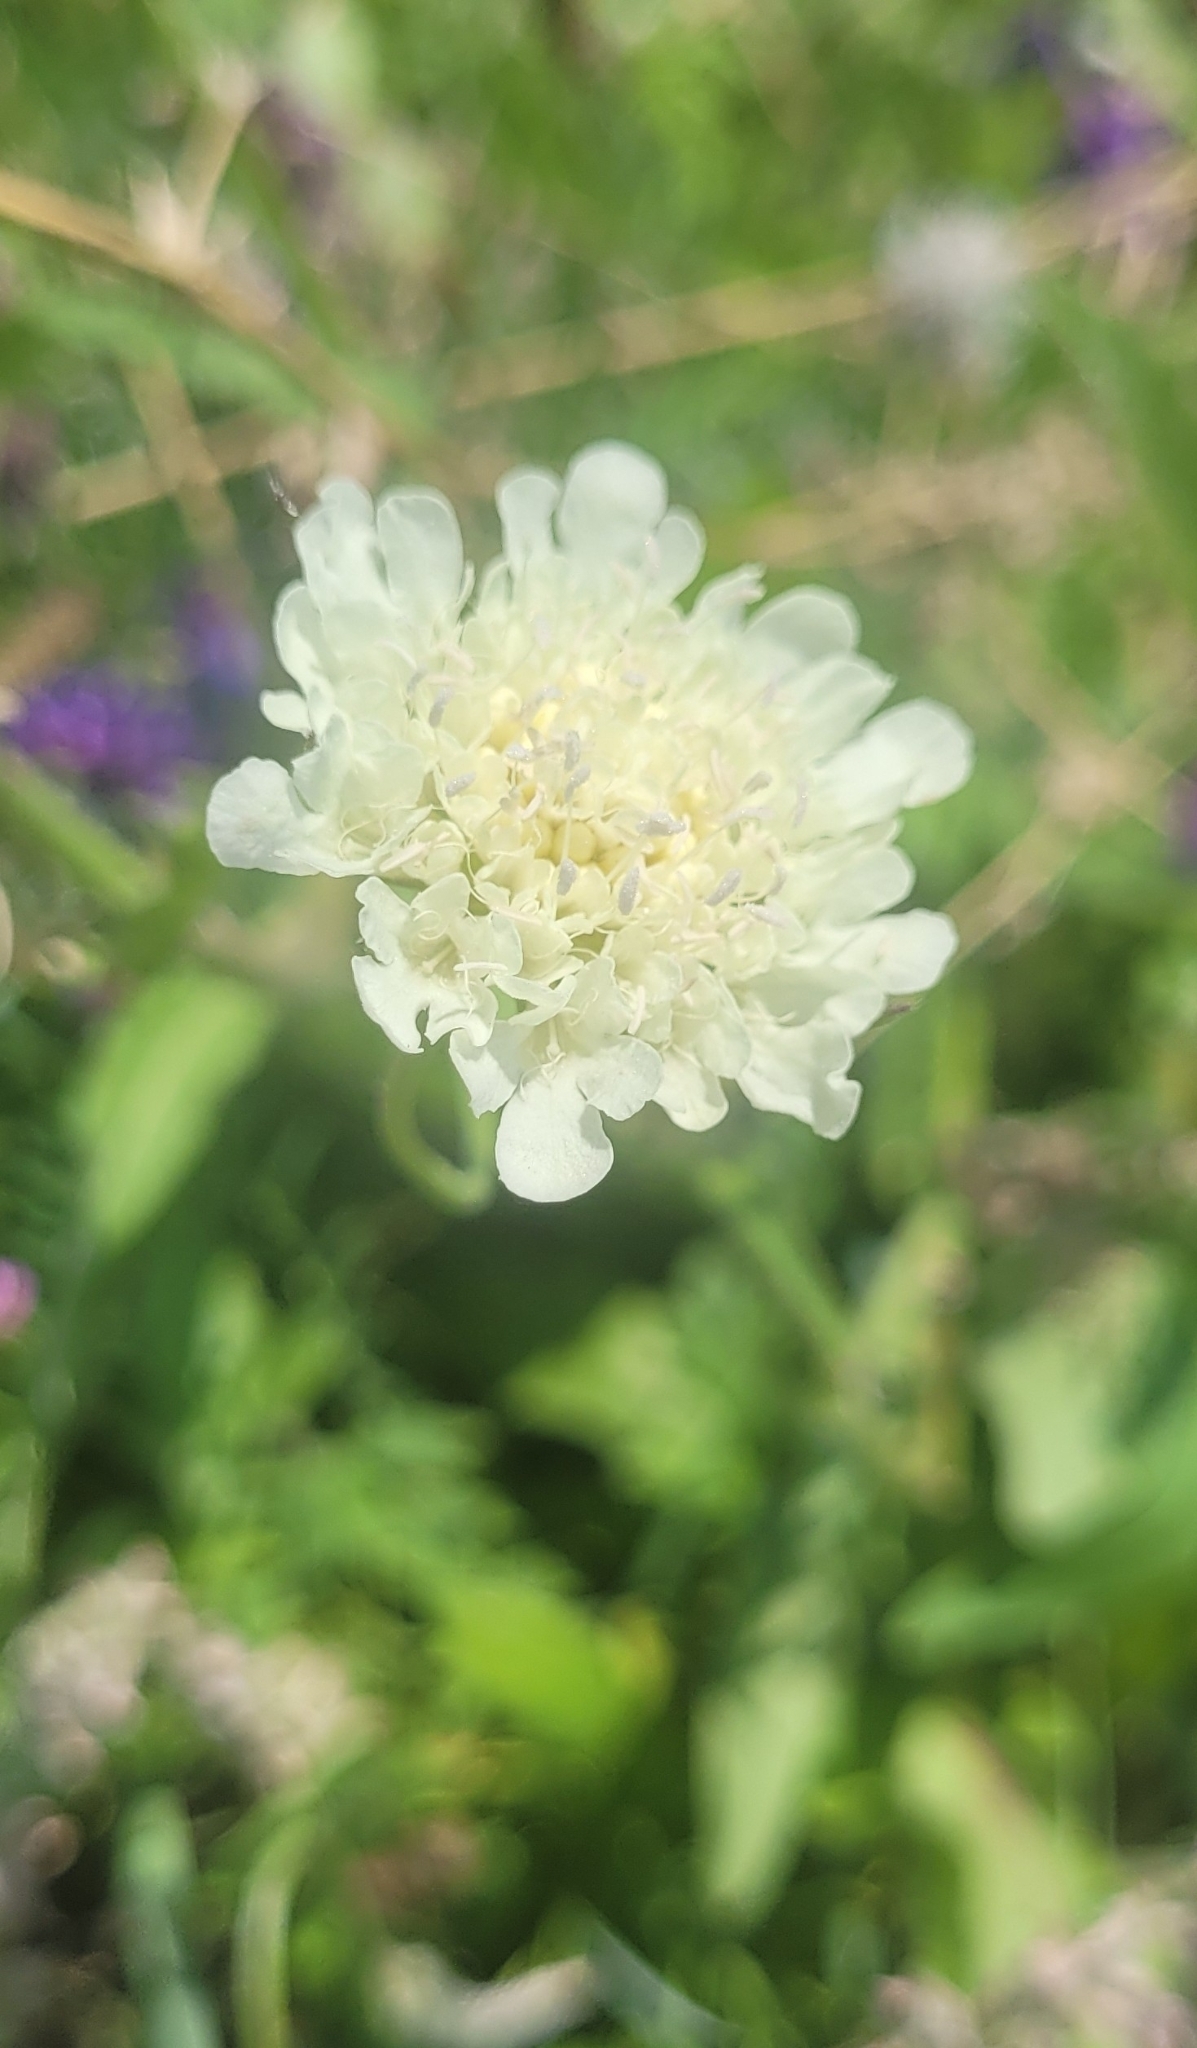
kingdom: Plantae
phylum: Tracheophyta
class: Magnoliopsida
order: Dipsacales
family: Caprifoliaceae
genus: Scabiosa
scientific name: Scabiosa ochroleuca
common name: Cream pincushions
